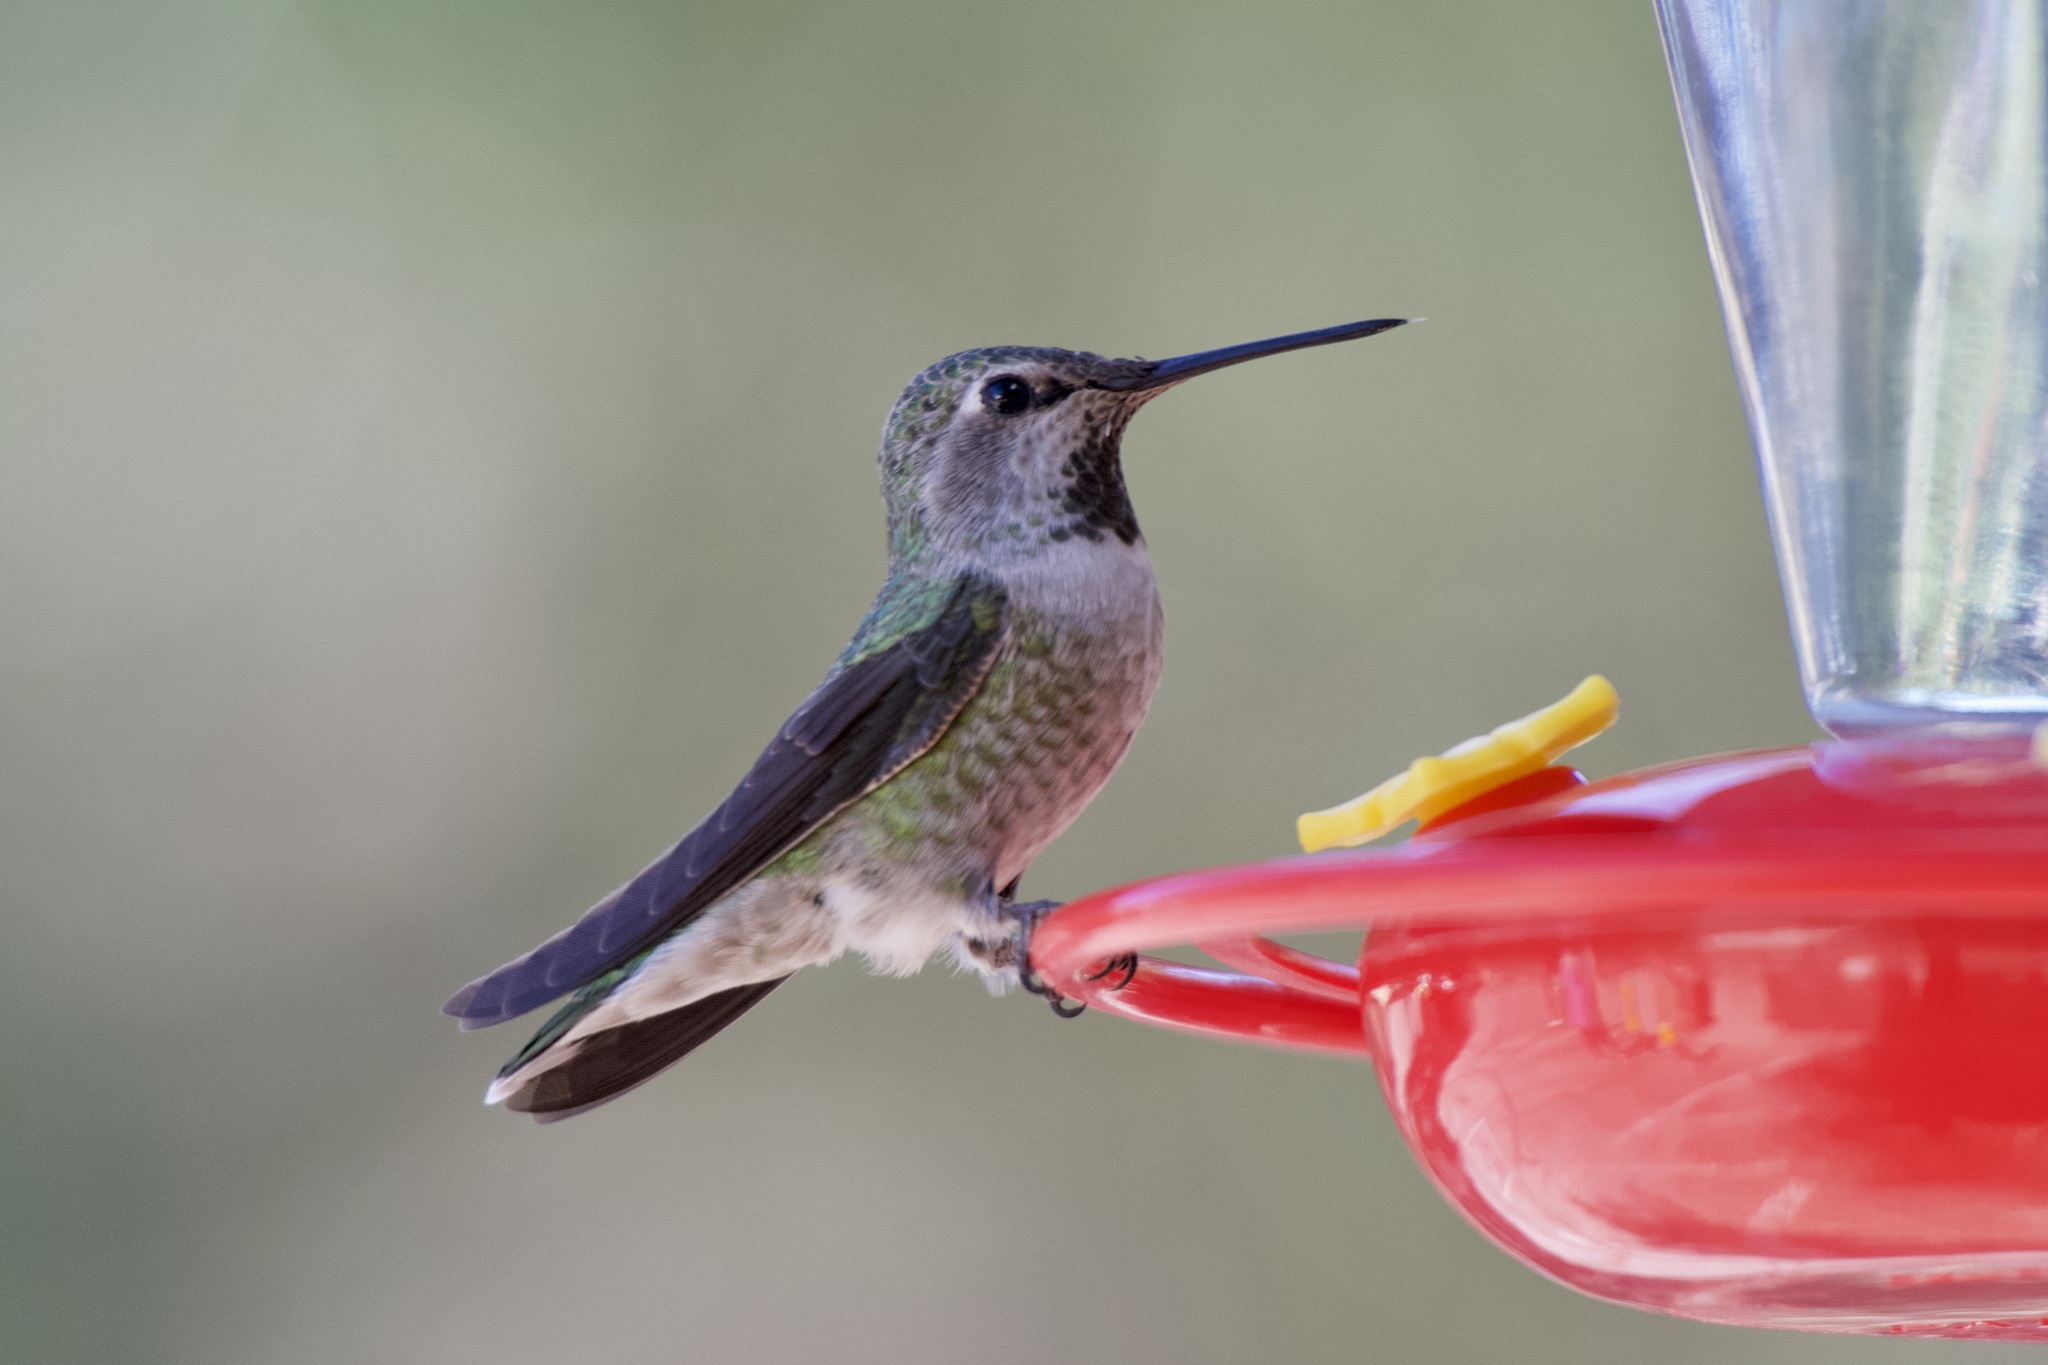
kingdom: Animalia
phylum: Chordata
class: Aves
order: Apodiformes
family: Trochilidae
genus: Calypte
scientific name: Calypte anna
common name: Anna's hummingbird
